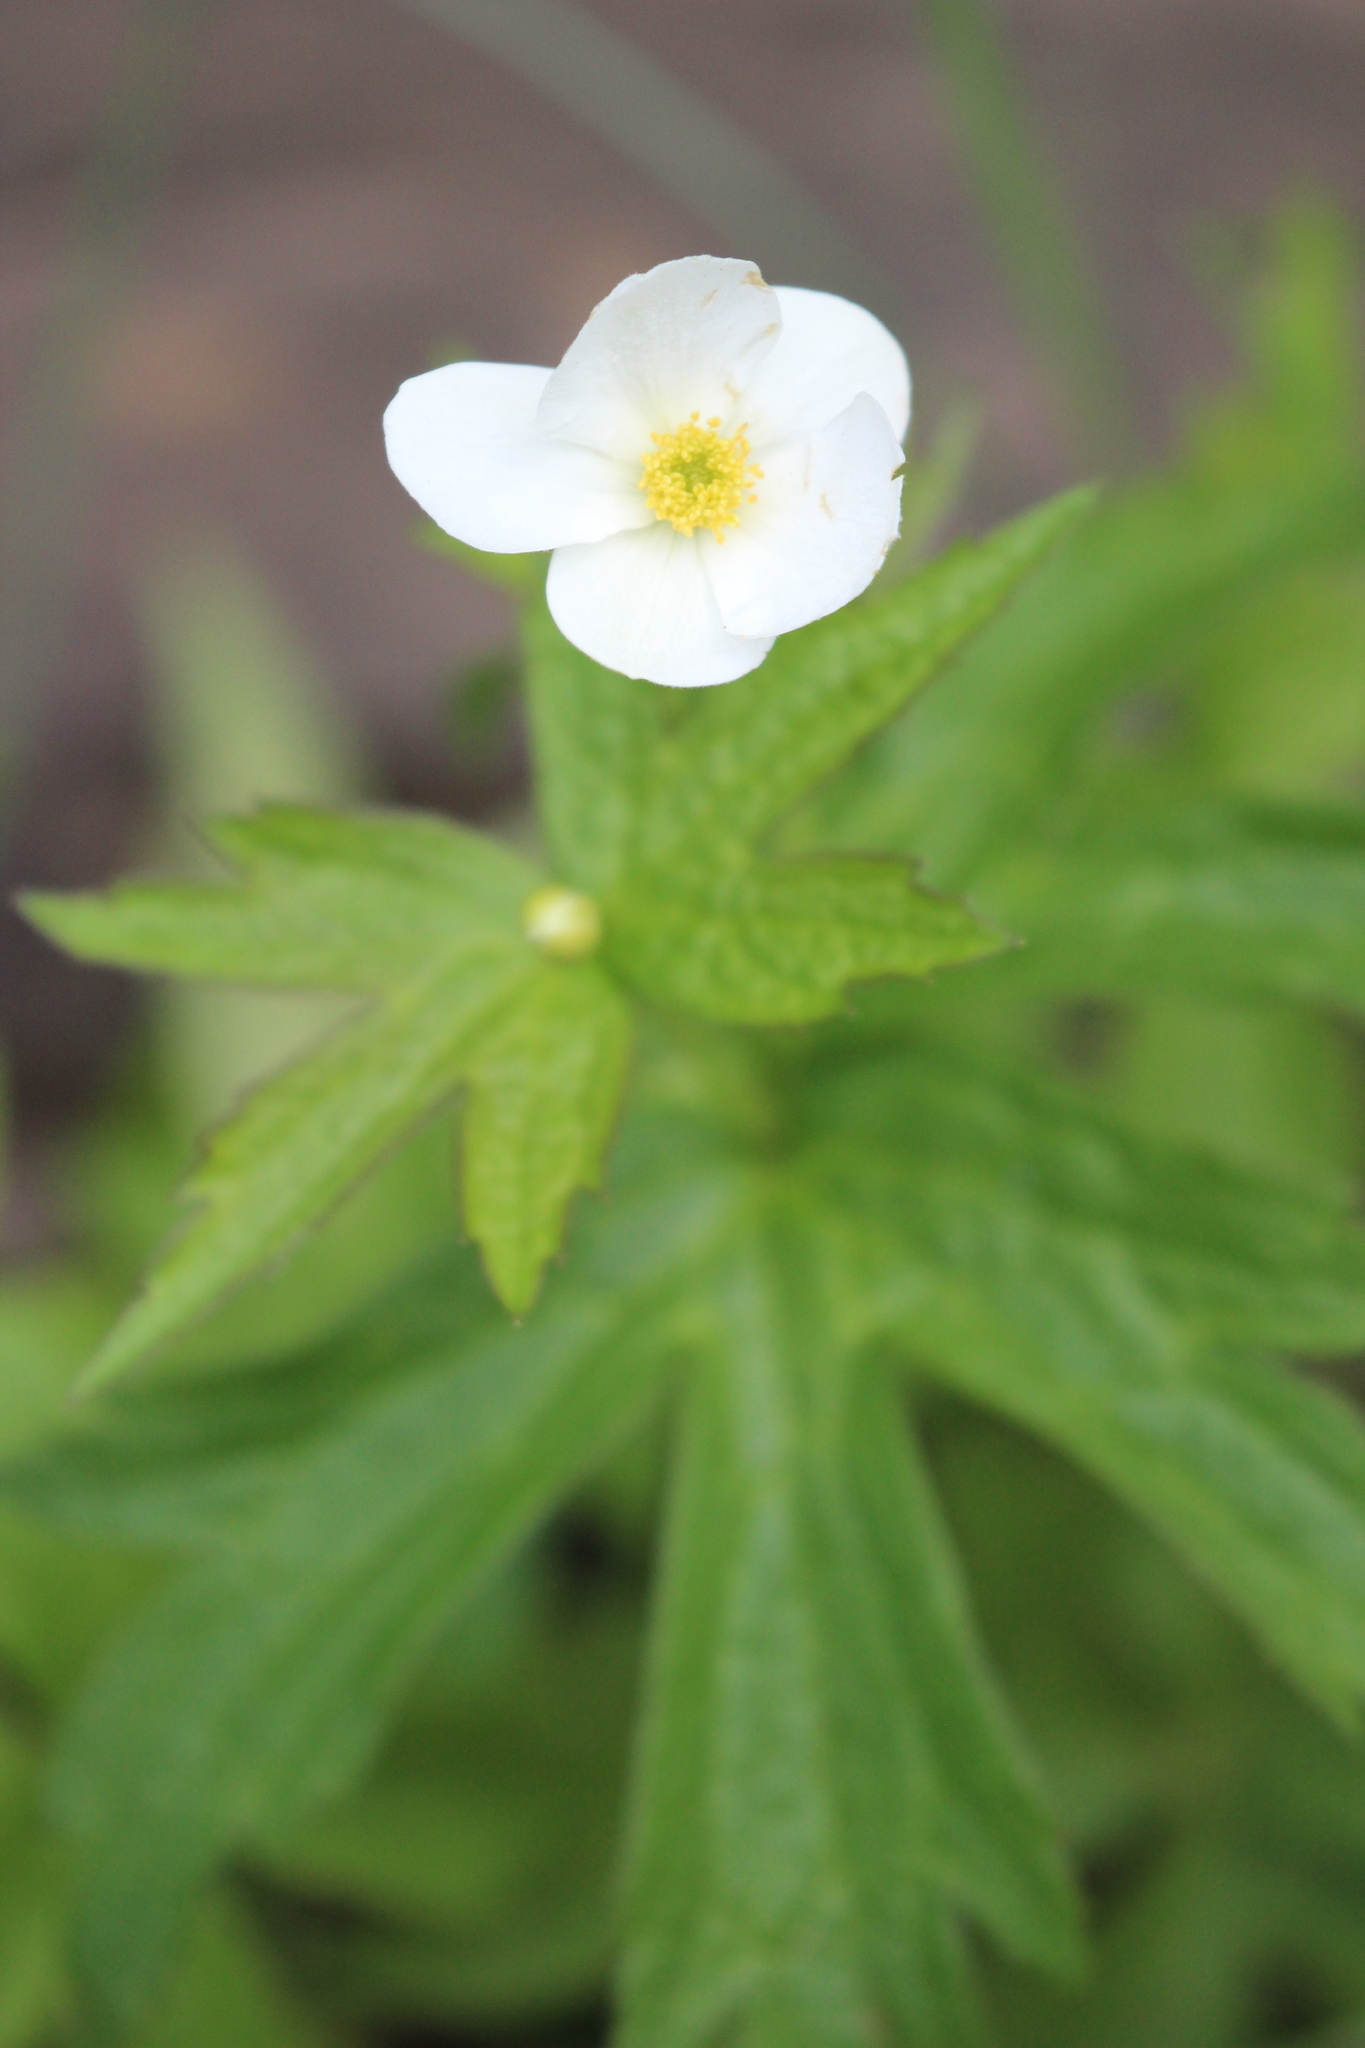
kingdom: Plantae
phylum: Tracheophyta
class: Magnoliopsida
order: Ranunculales
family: Ranunculaceae
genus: Anemonastrum
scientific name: Anemonastrum canadense
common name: Canada anemone
